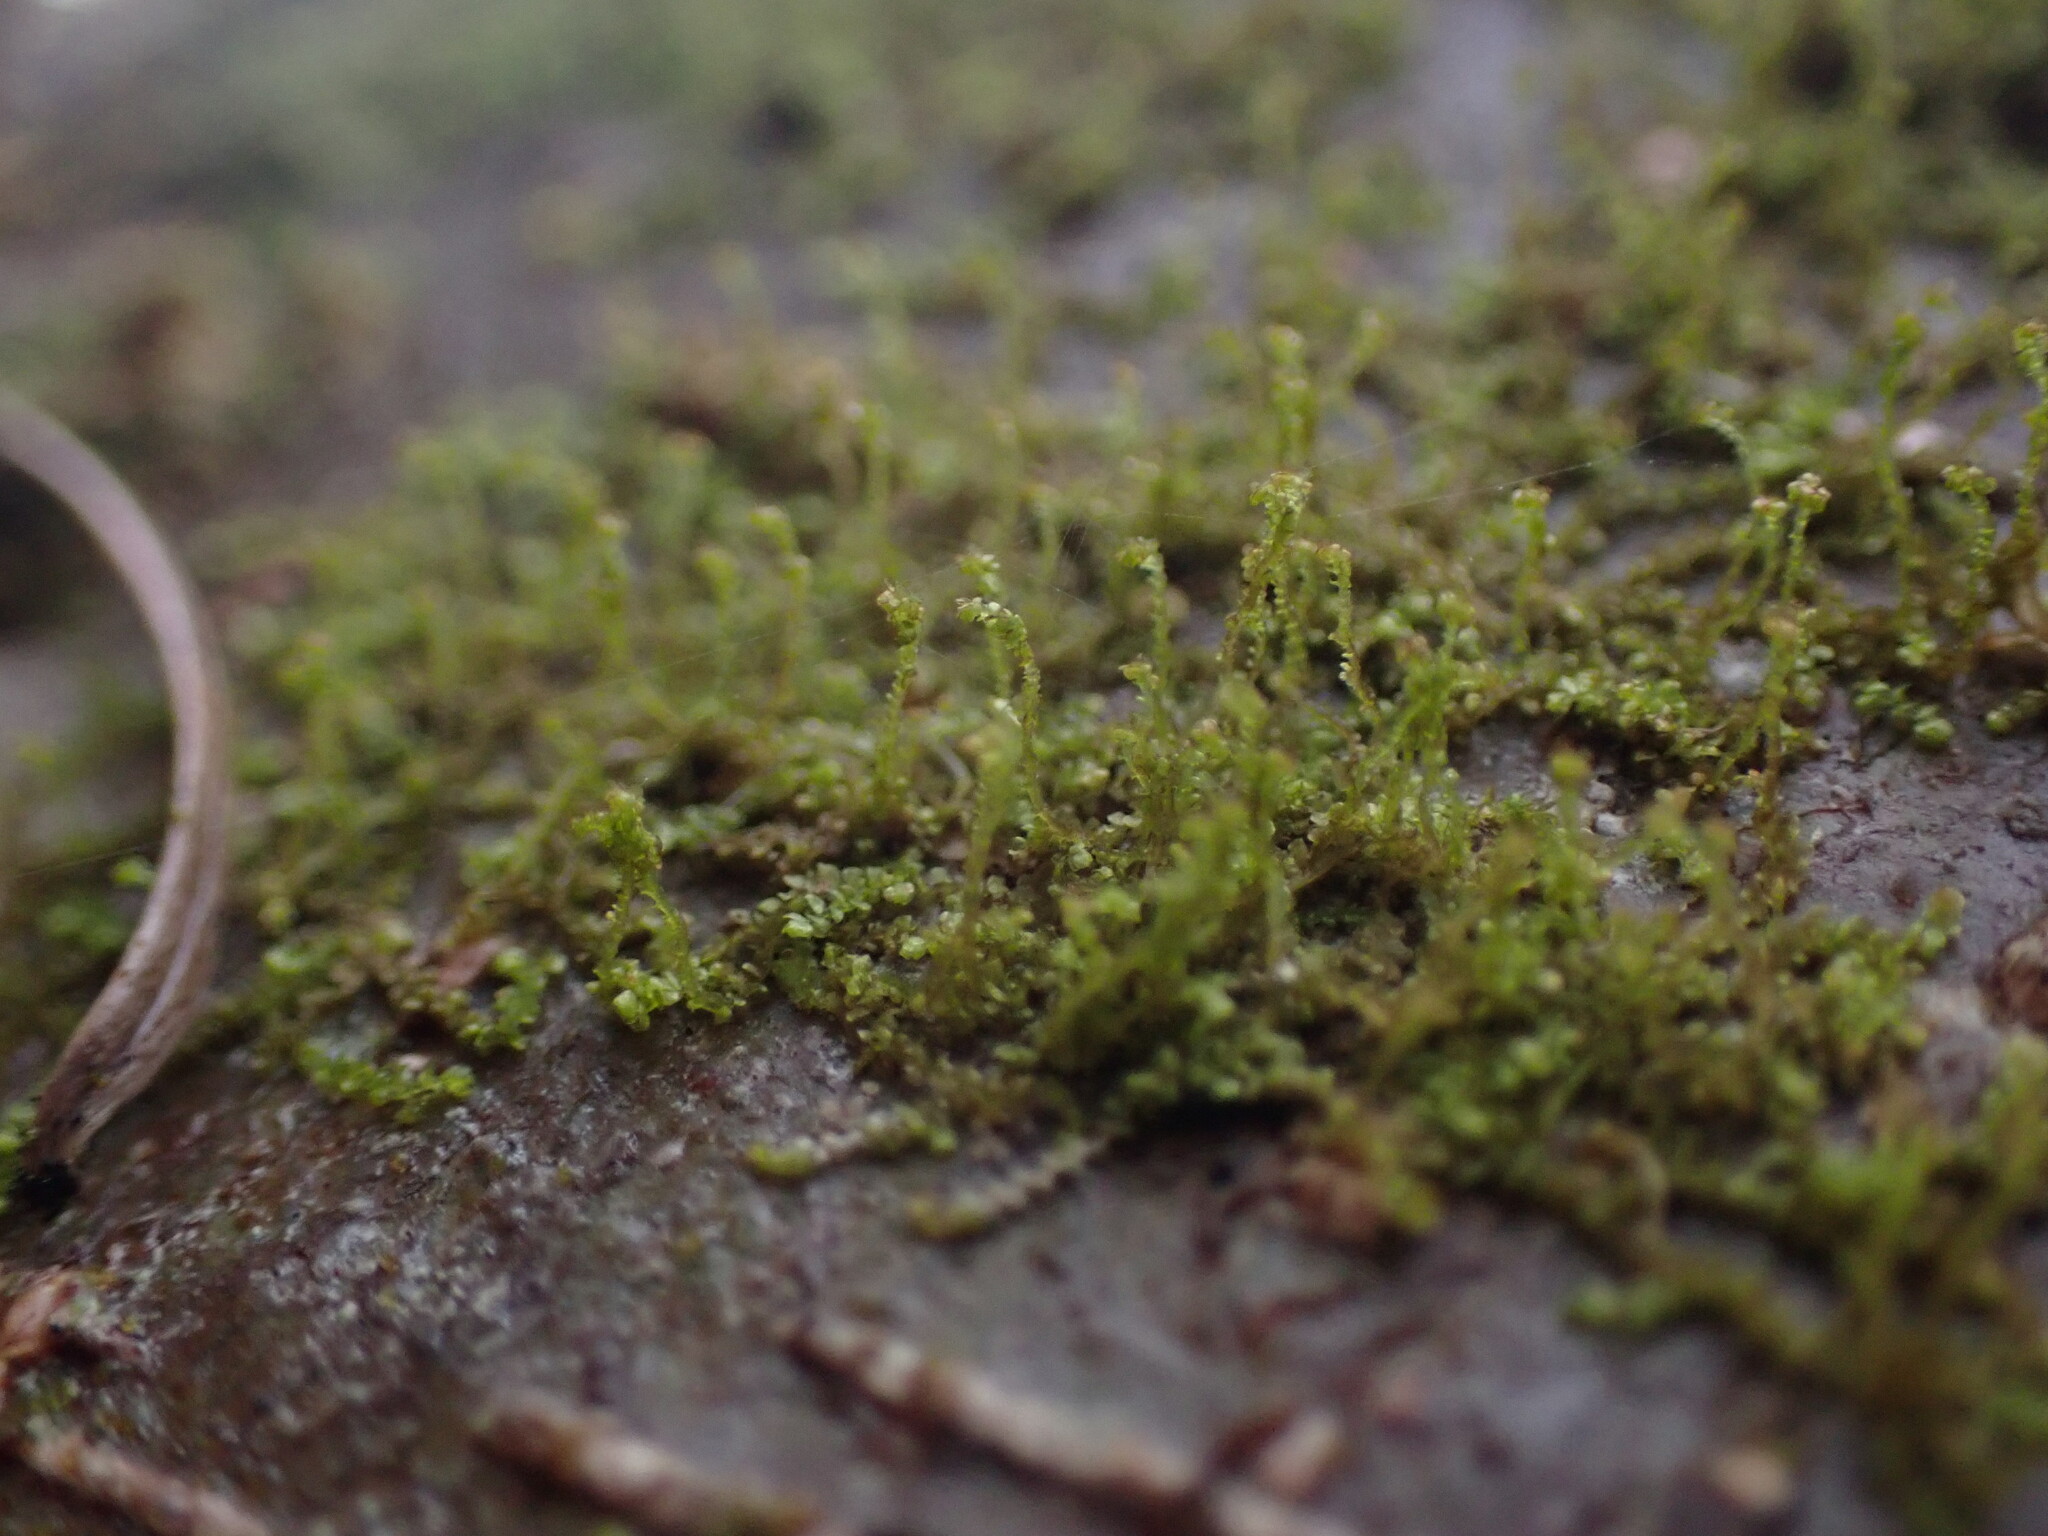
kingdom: Plantae
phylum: Marchantiophyta
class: Jungermanniopsida
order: Porellales
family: Frullaniaceae
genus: Frullania
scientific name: Frullania bolanderi
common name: Bolander s scalewort
